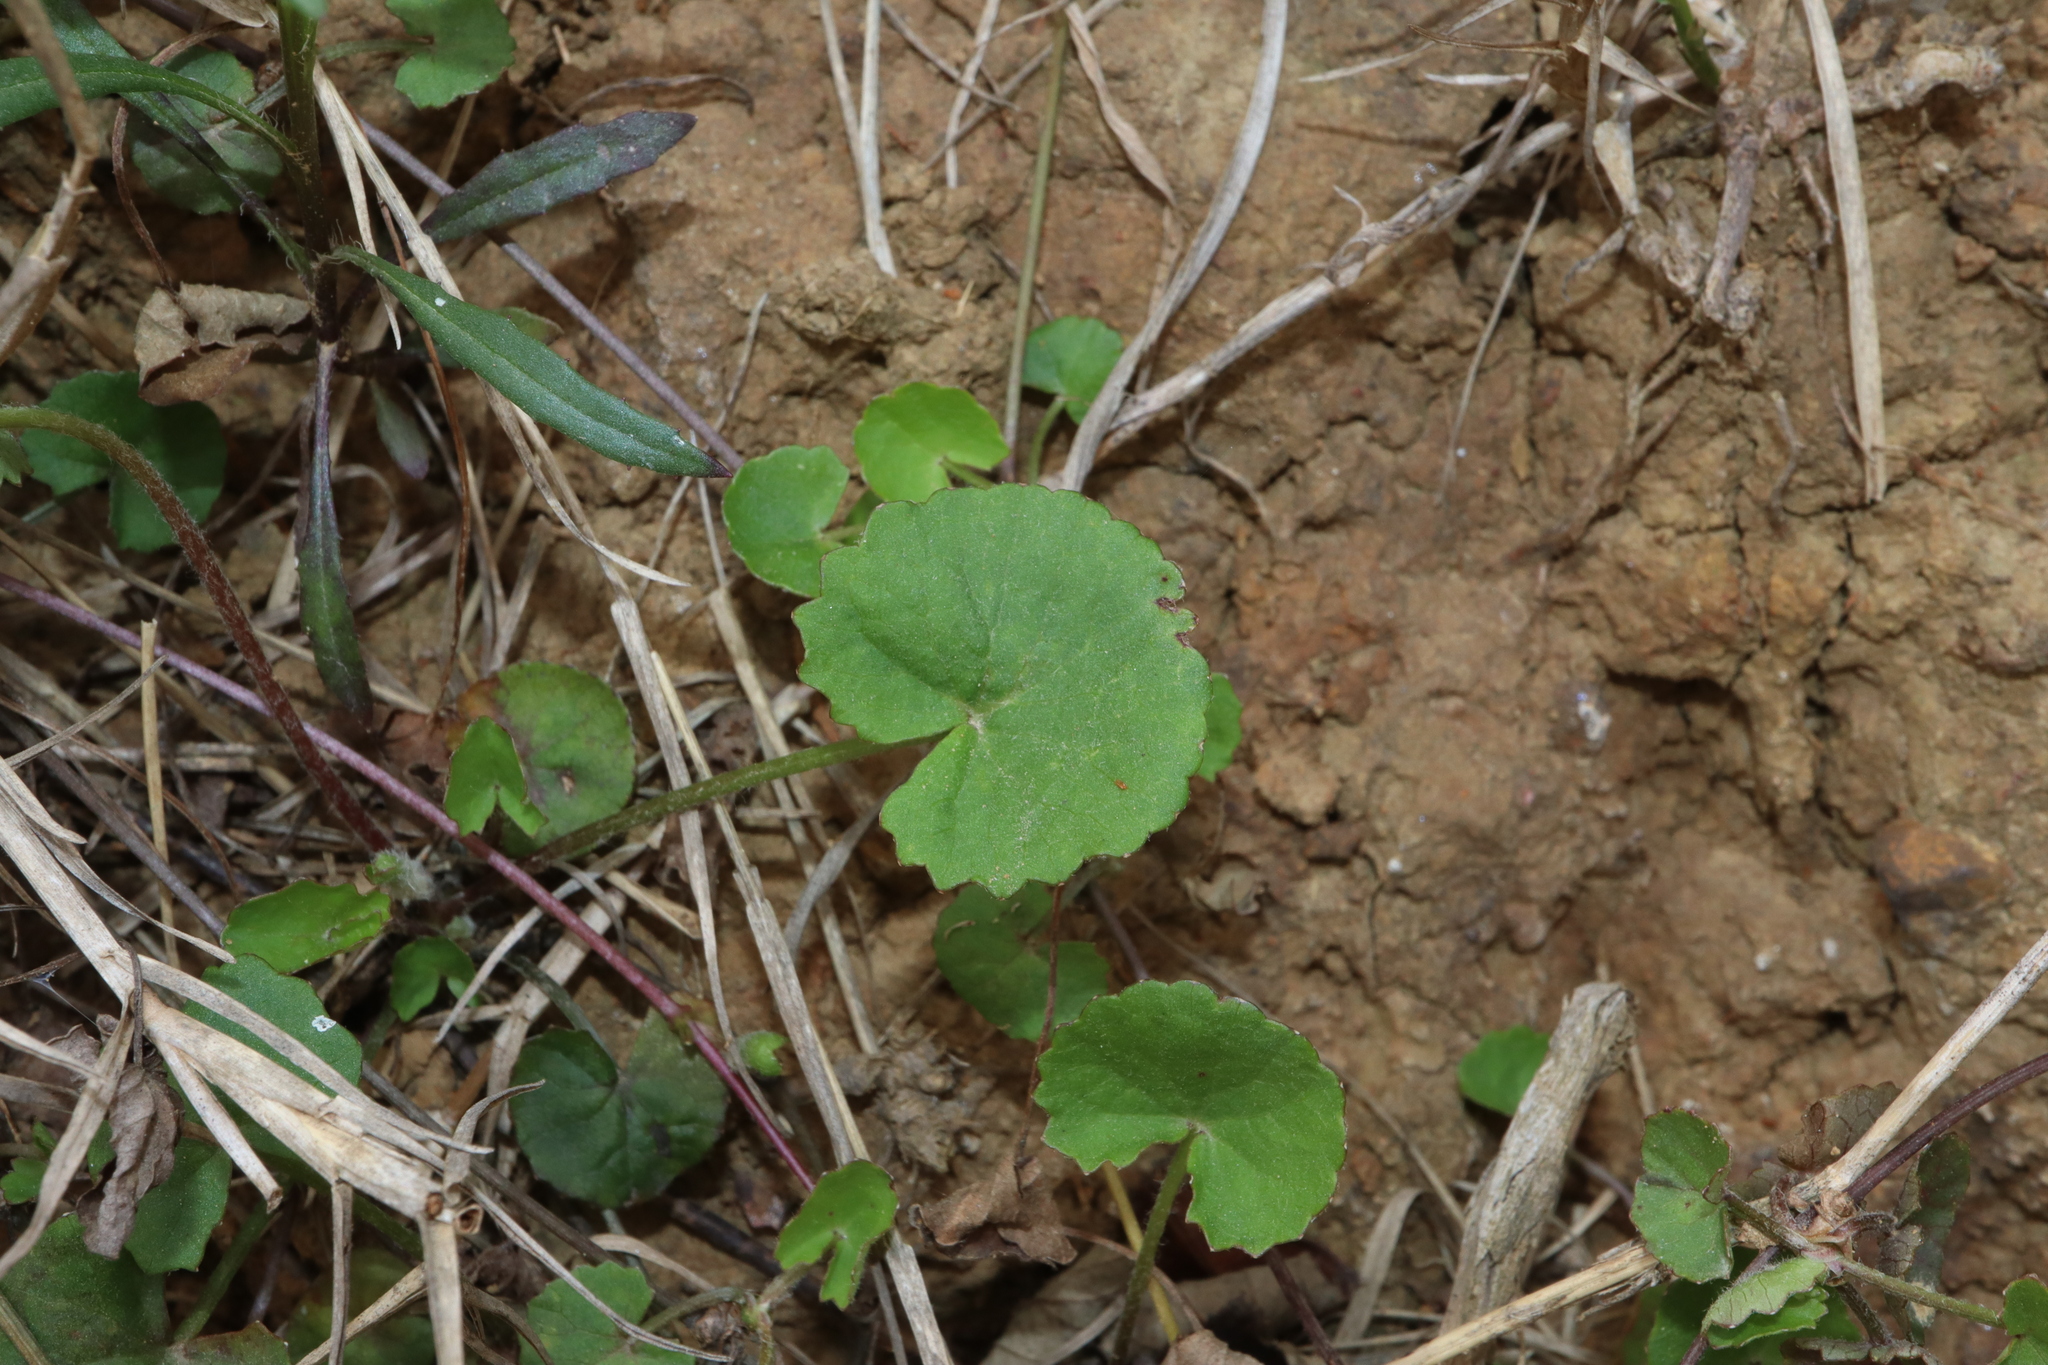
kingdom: Plantae
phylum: Tracheophyta
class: Magnoliopsida
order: Apiales
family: Apiaceae
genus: Centella
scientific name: Centella asiatica
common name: Spadeleaf
